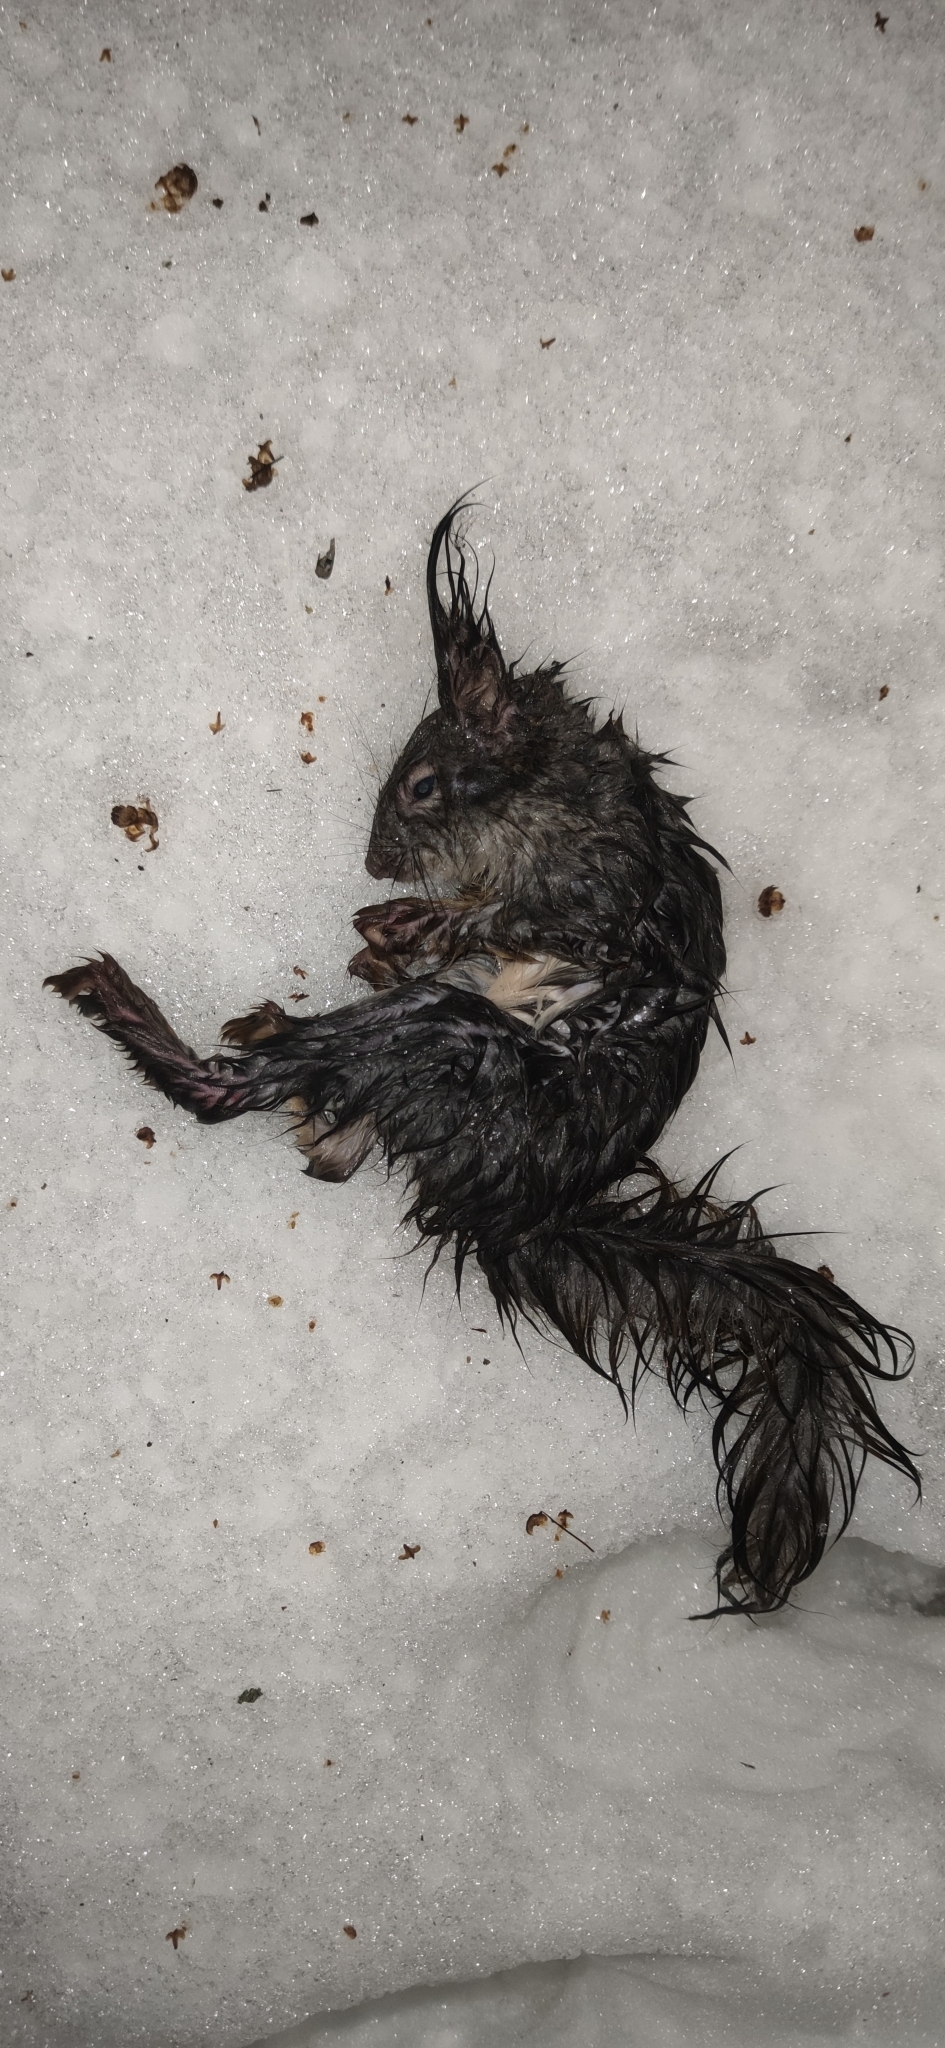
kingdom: Animalia
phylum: Chordata
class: Mammalia
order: Rodentia
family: Sciuridae
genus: Sciurus
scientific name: Sciurus vulgaris
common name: Eurasian red squirrel
